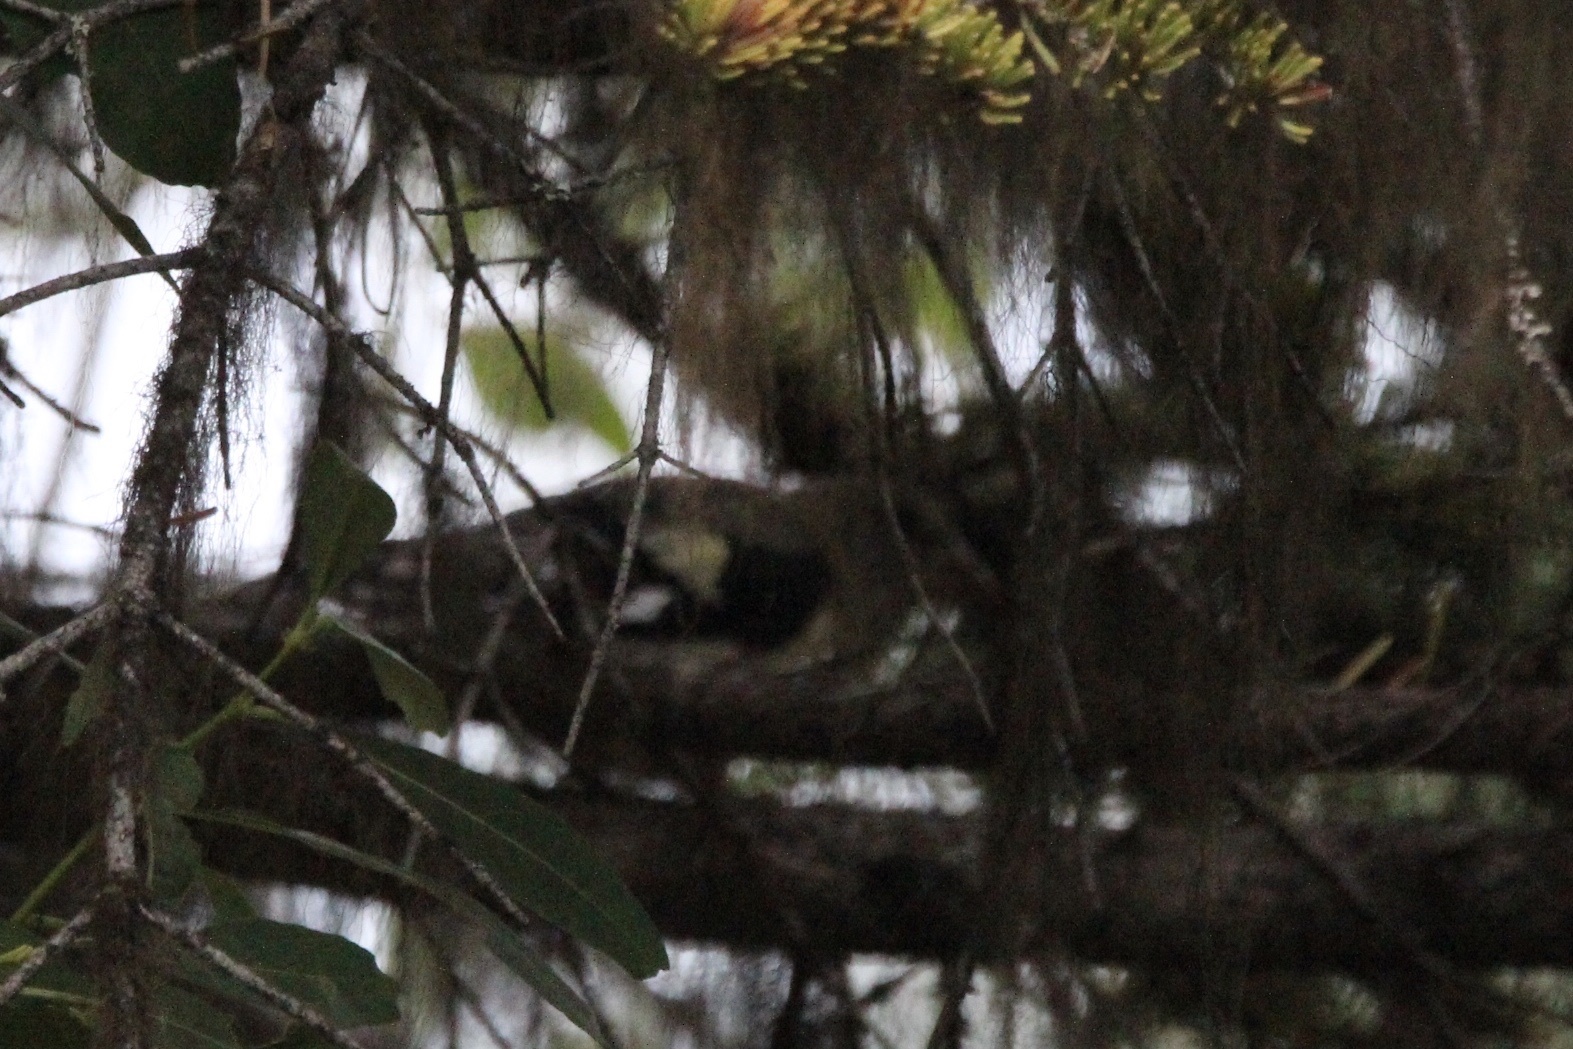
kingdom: Animalia
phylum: Chordata
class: Aves
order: Passeriformes
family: Fringillidae
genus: Hesperiphona
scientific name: Hesperiphona vespertina
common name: Evening grosbeak
